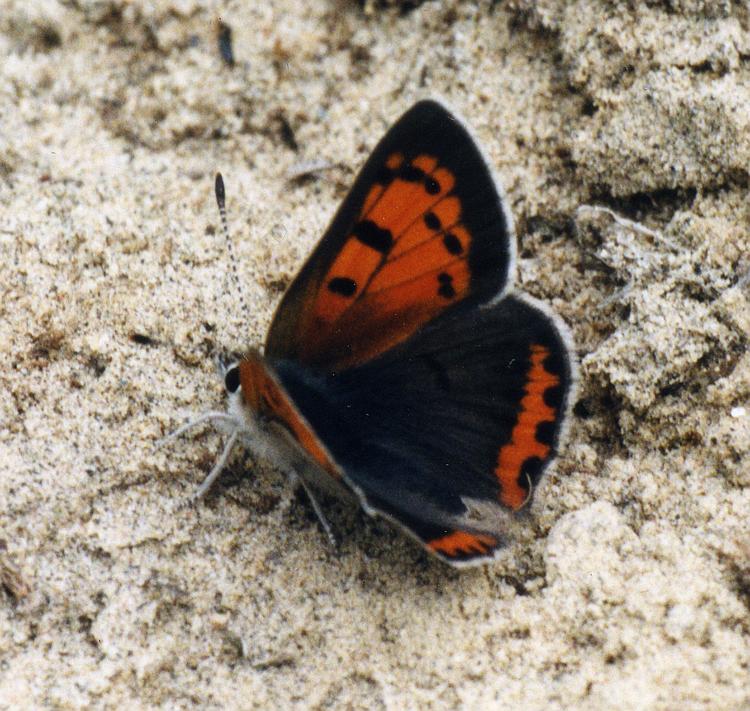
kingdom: Animalia
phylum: Arthropoda
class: Insecta
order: Lepidoptera
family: Lycaenidae
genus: Lycaena
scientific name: Lycaena hypophlaeas
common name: American copper
